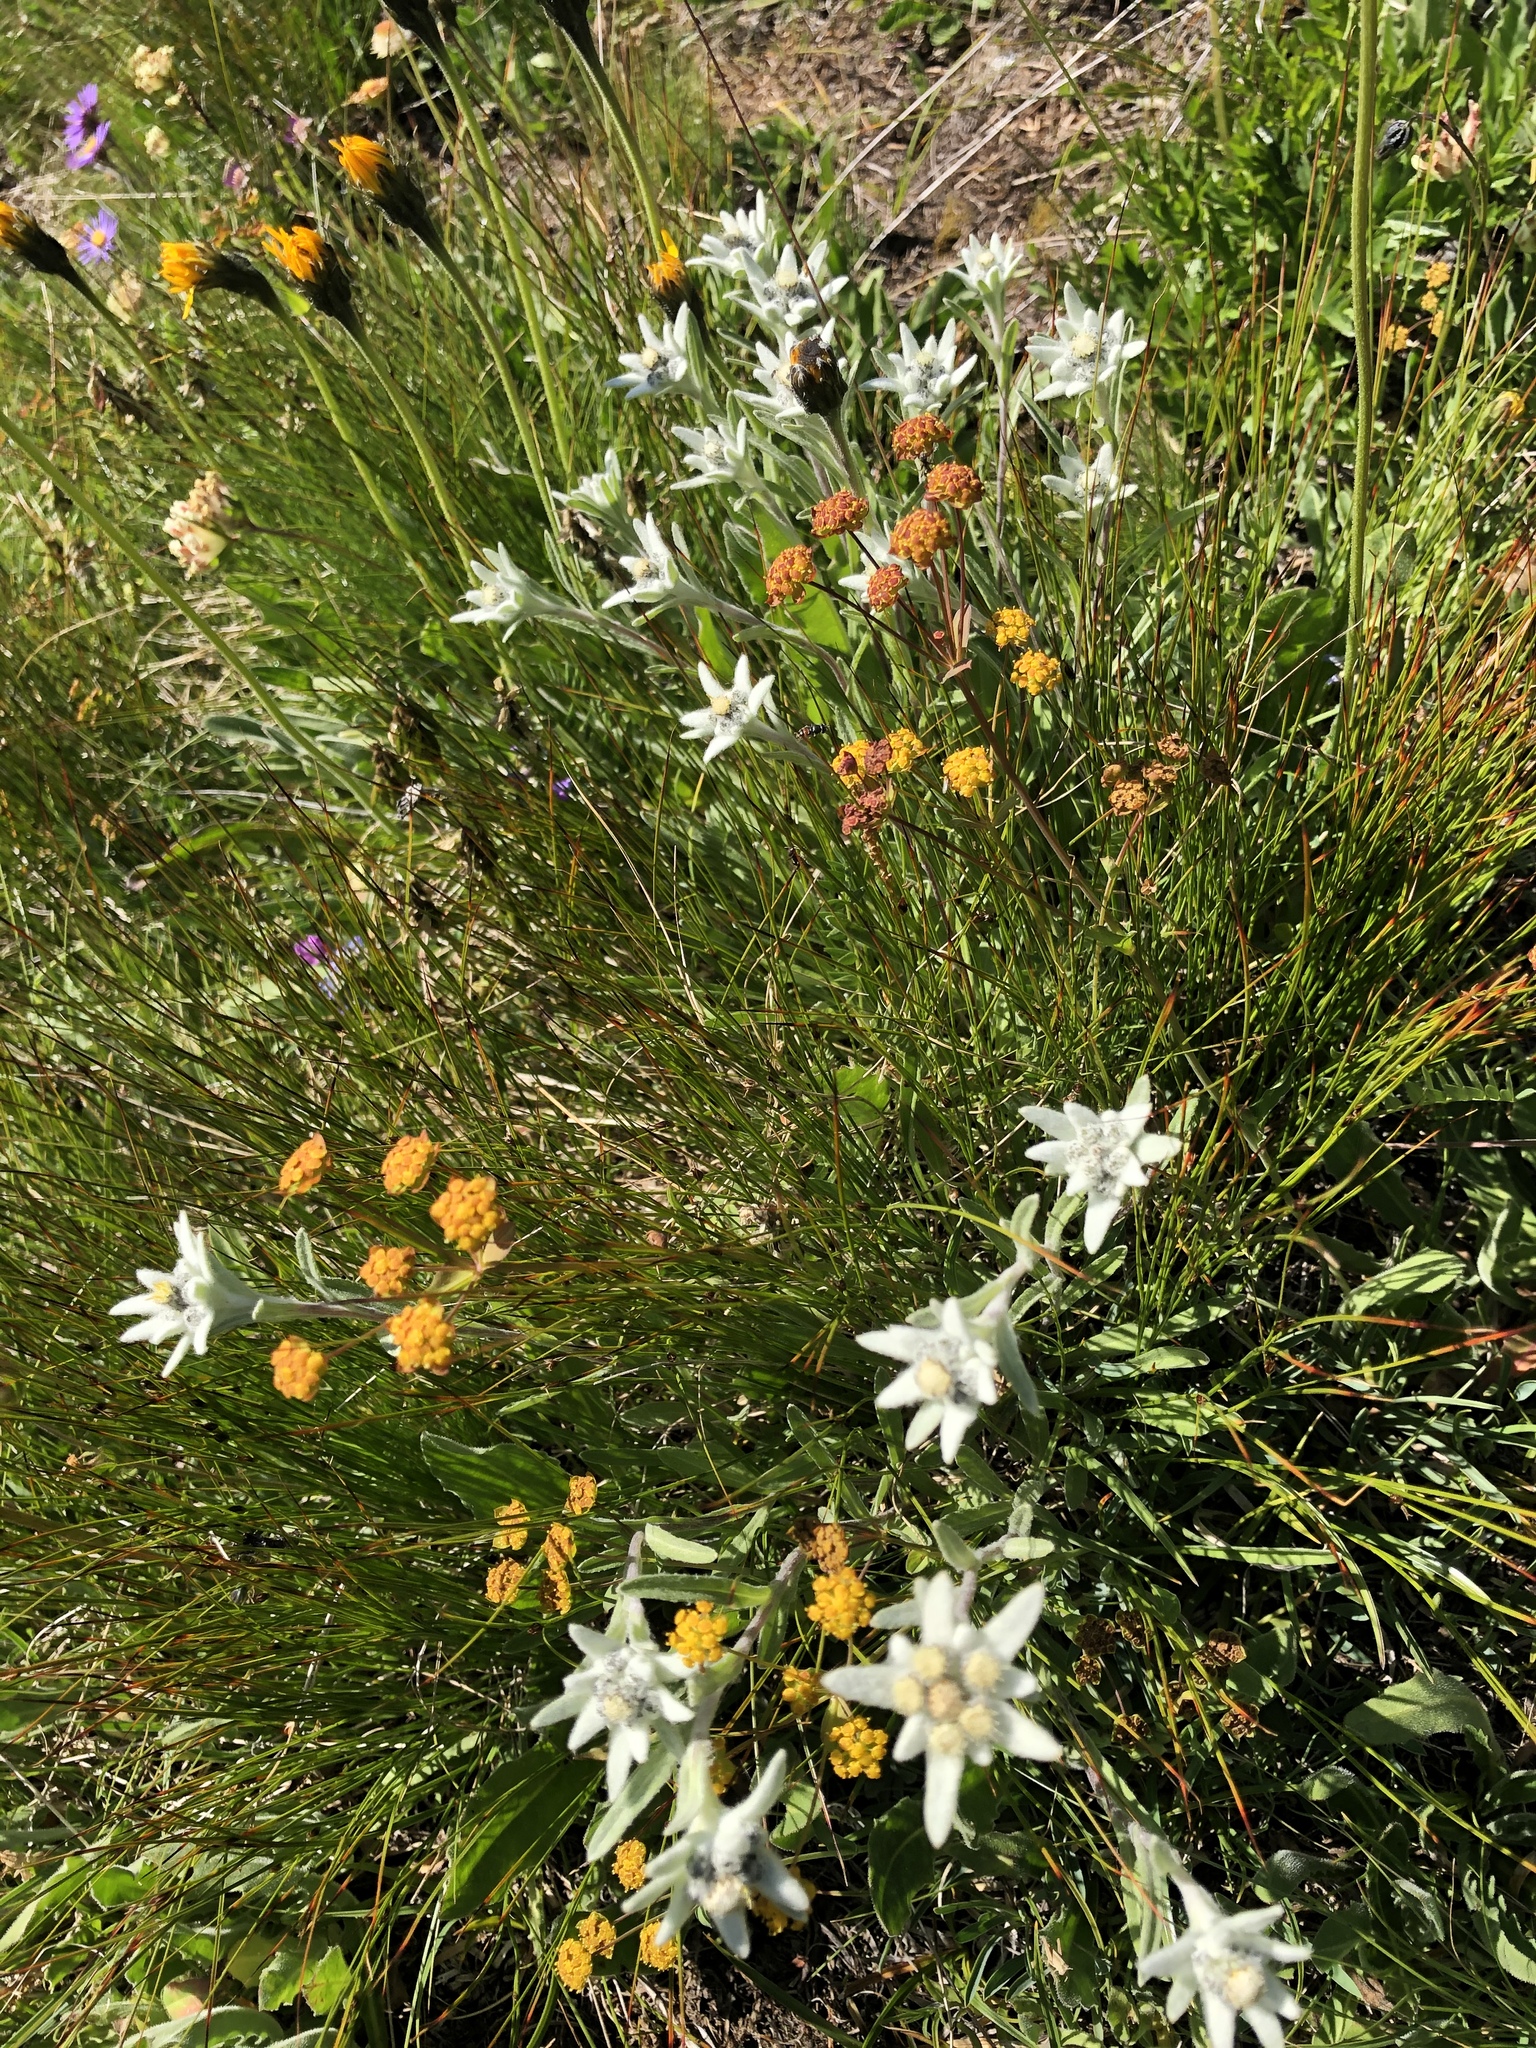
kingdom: Plantae
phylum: Tracheophyta
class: Magnoliopsida
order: Asterales
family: Asteraceae
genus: Leontopodium
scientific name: Leontopodium nivale
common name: Edelweiss
